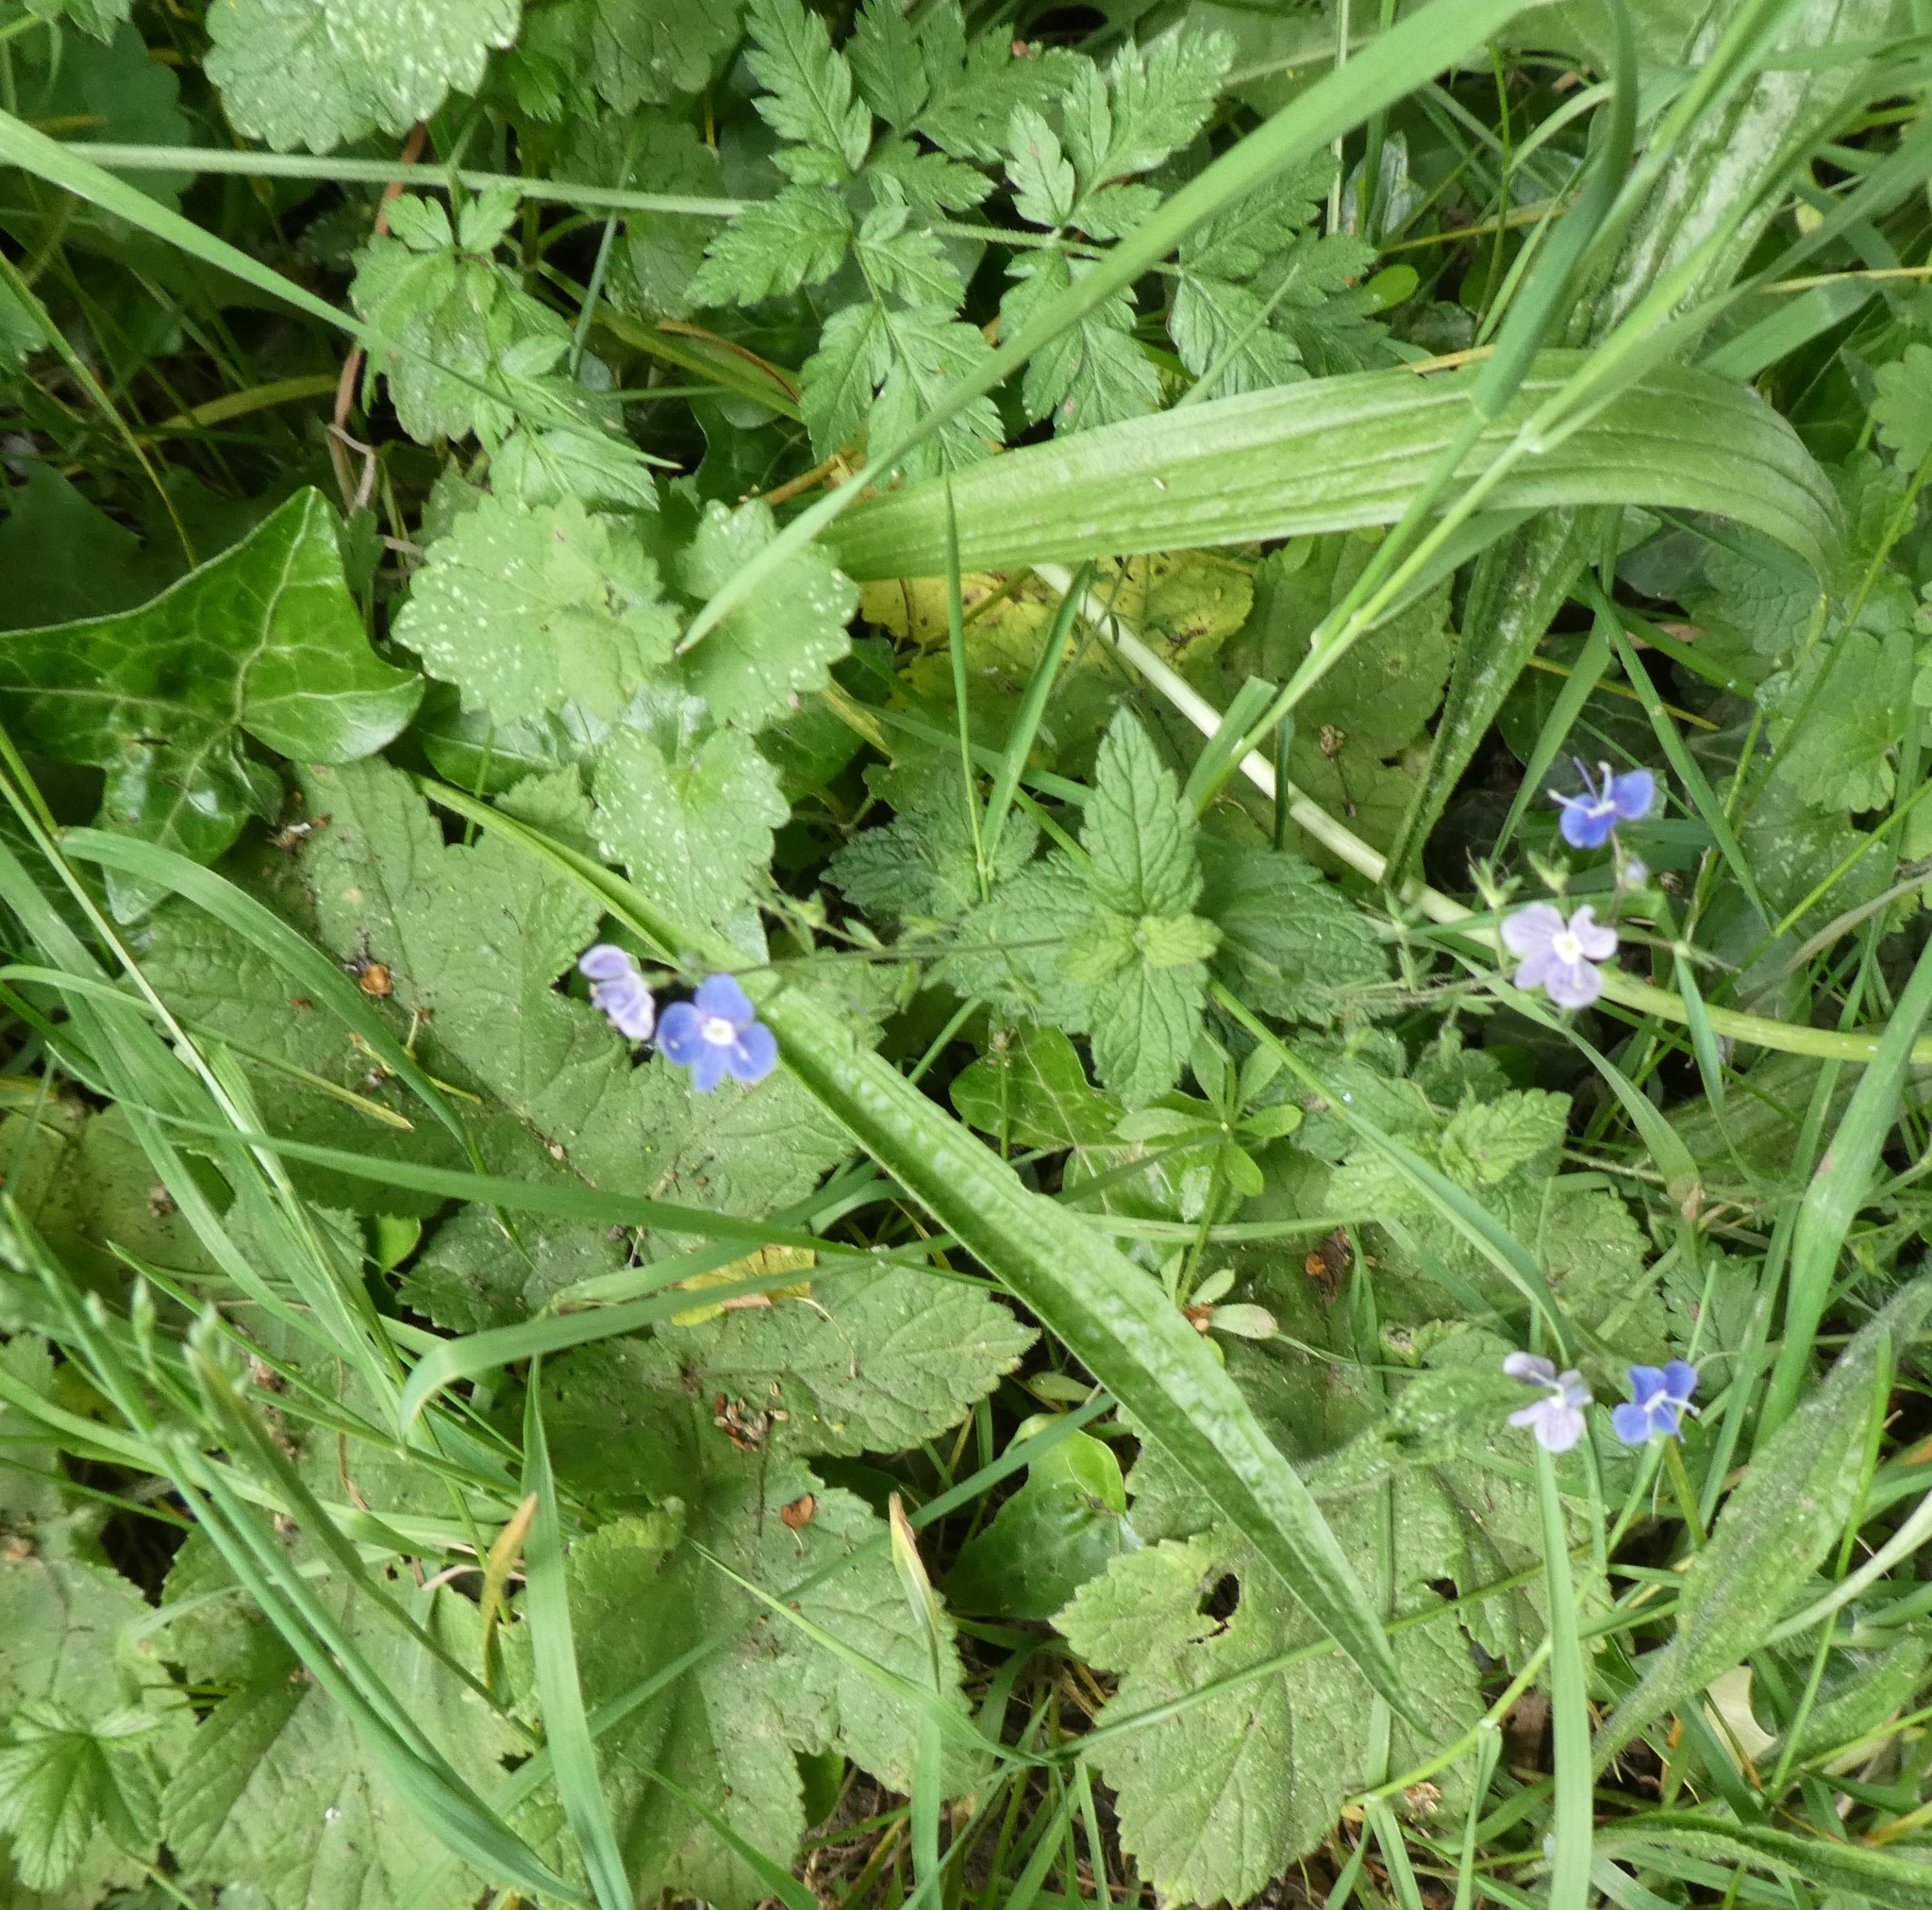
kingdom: Plantae
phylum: Tracheophyta
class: Magnoliopsida
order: Lamiales
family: Plantaginaceae
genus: Veronica
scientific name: Veronica chamaedrys
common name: Germander speedwell
